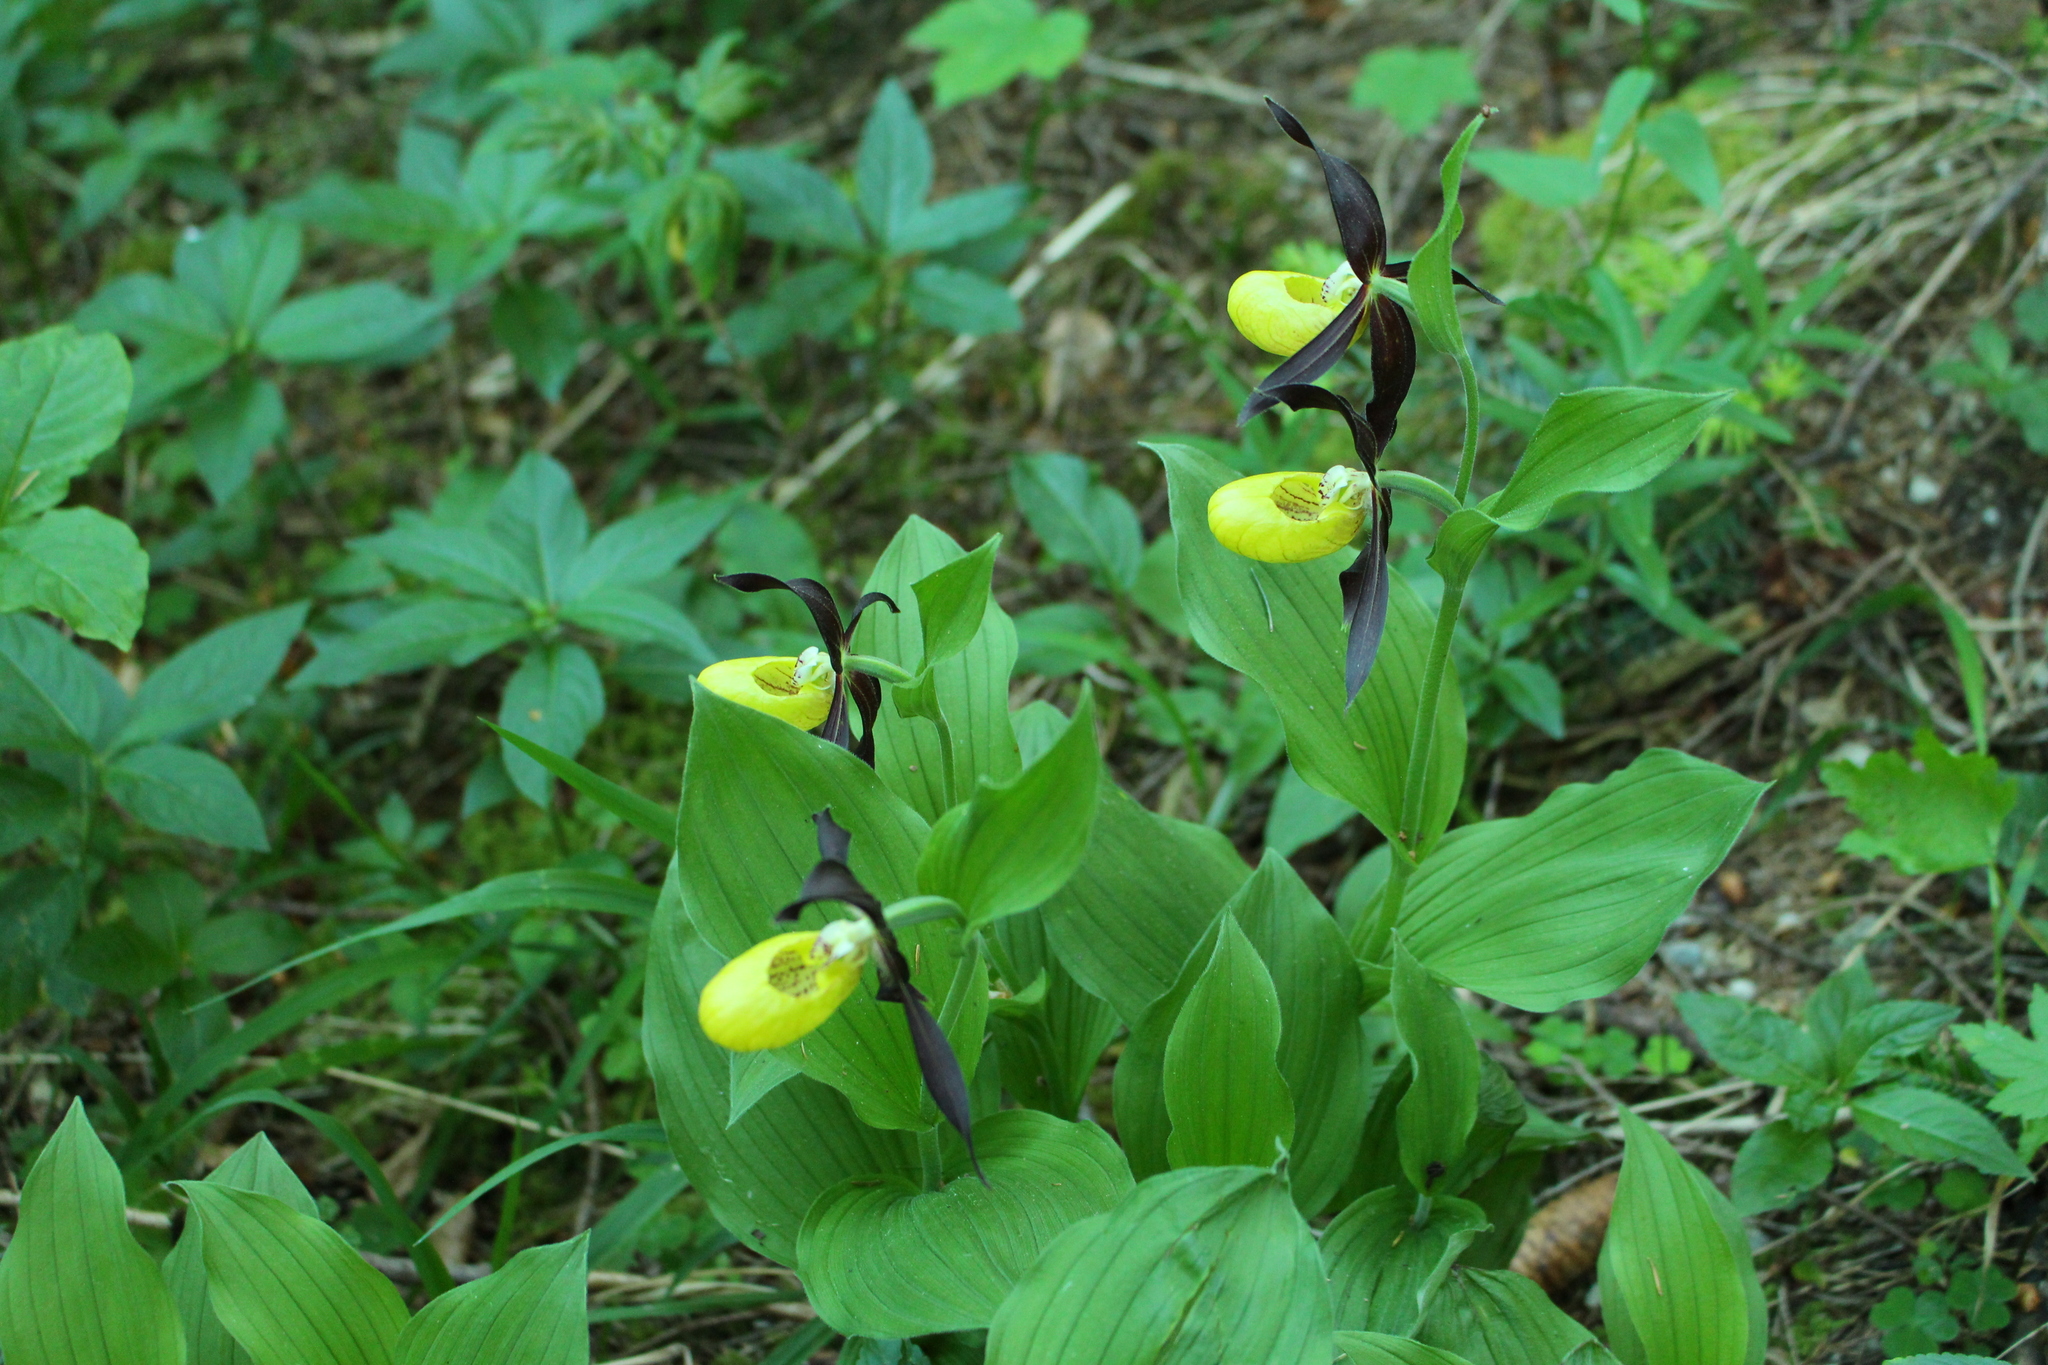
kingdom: Plantae
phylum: Tracheophyta
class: Liliopsida
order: Asparagales
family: Orchidaceae
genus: Cypripedium
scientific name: Cypripedium calceolus
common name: Lady's-slipper
